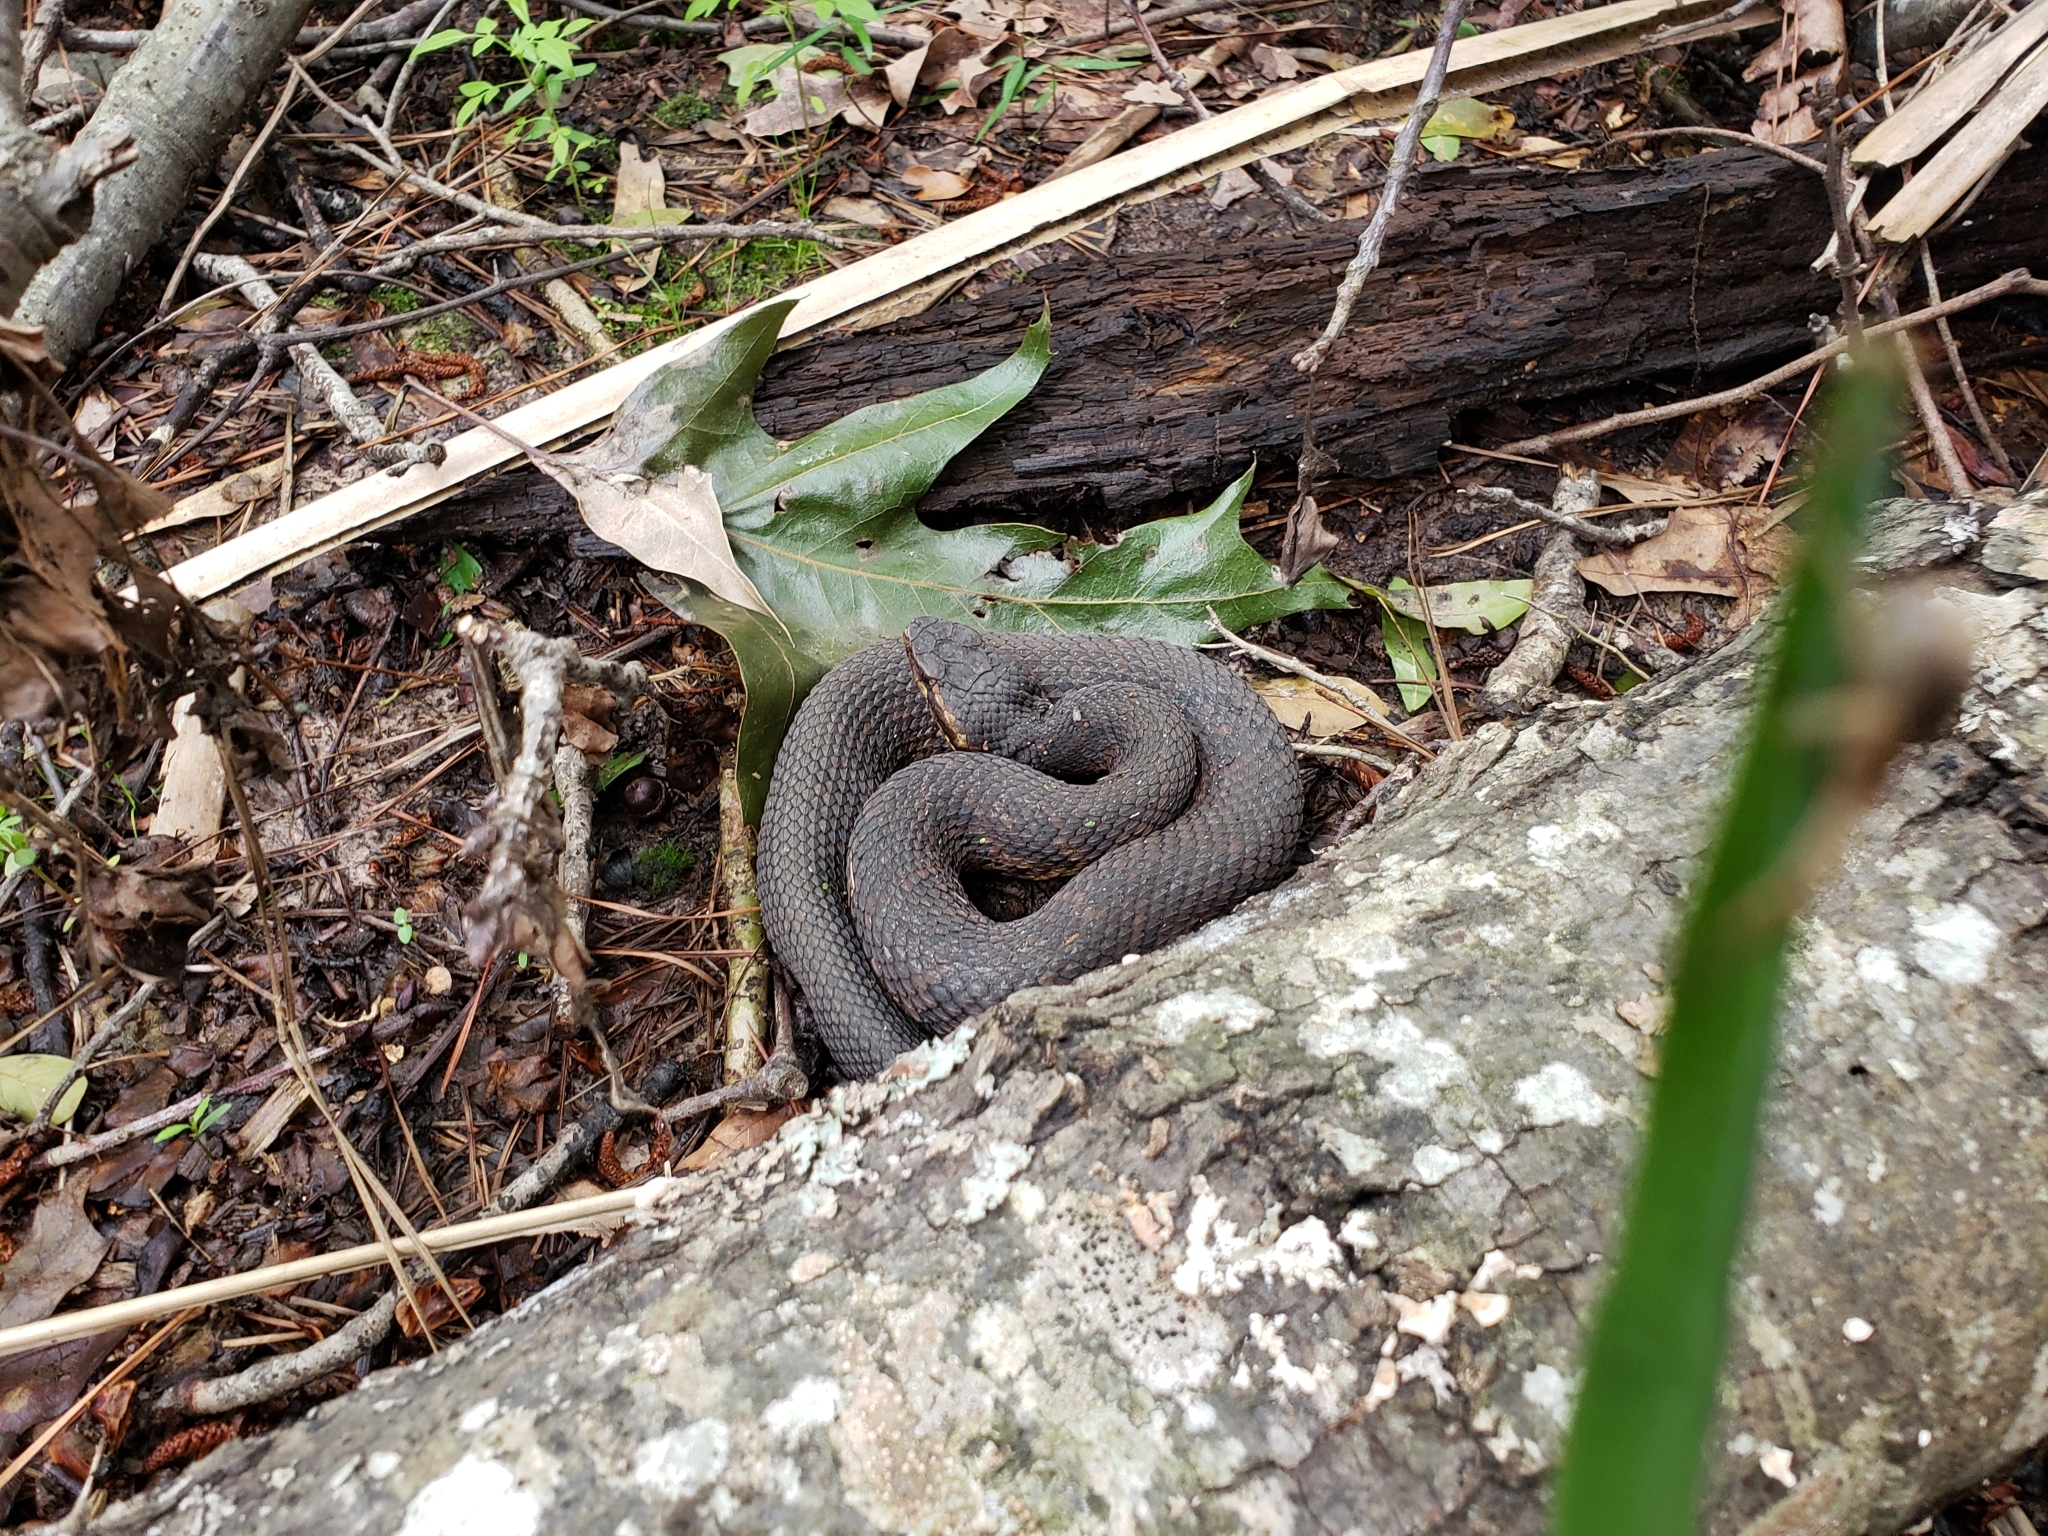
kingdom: Animalia
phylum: Chordata
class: Squamata
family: Viperidae
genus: Agkistrodon
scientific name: Agkistrodon piscivorus
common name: Cottonmouth
